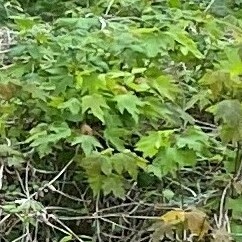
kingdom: Plantae
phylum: Tracheophyta
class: Magnoliopsida
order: Rosales
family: Cannabaceae
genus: Humulus
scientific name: Humulus scandens
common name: Japanese hop
